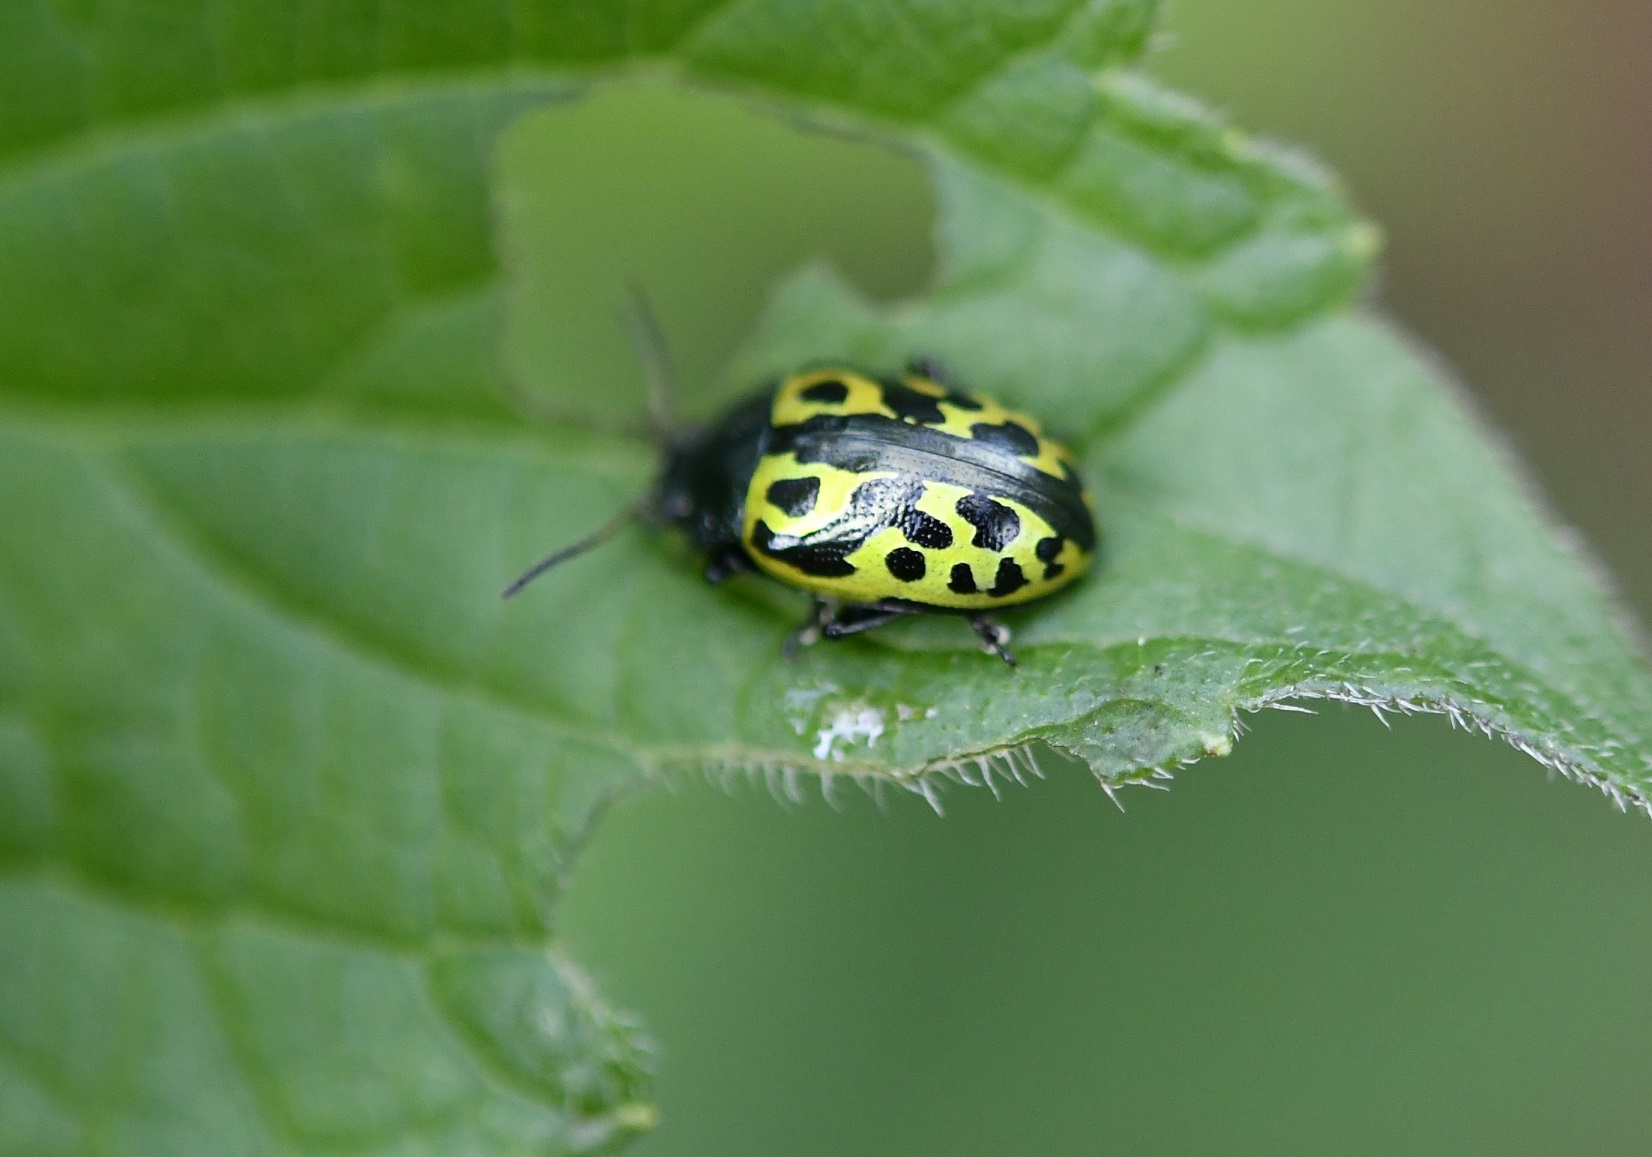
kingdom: Animalia
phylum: Arthropoda
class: Insecta
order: Coleoptera
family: Chrysomelidae
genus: Calligrapha
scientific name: Calligrapha
